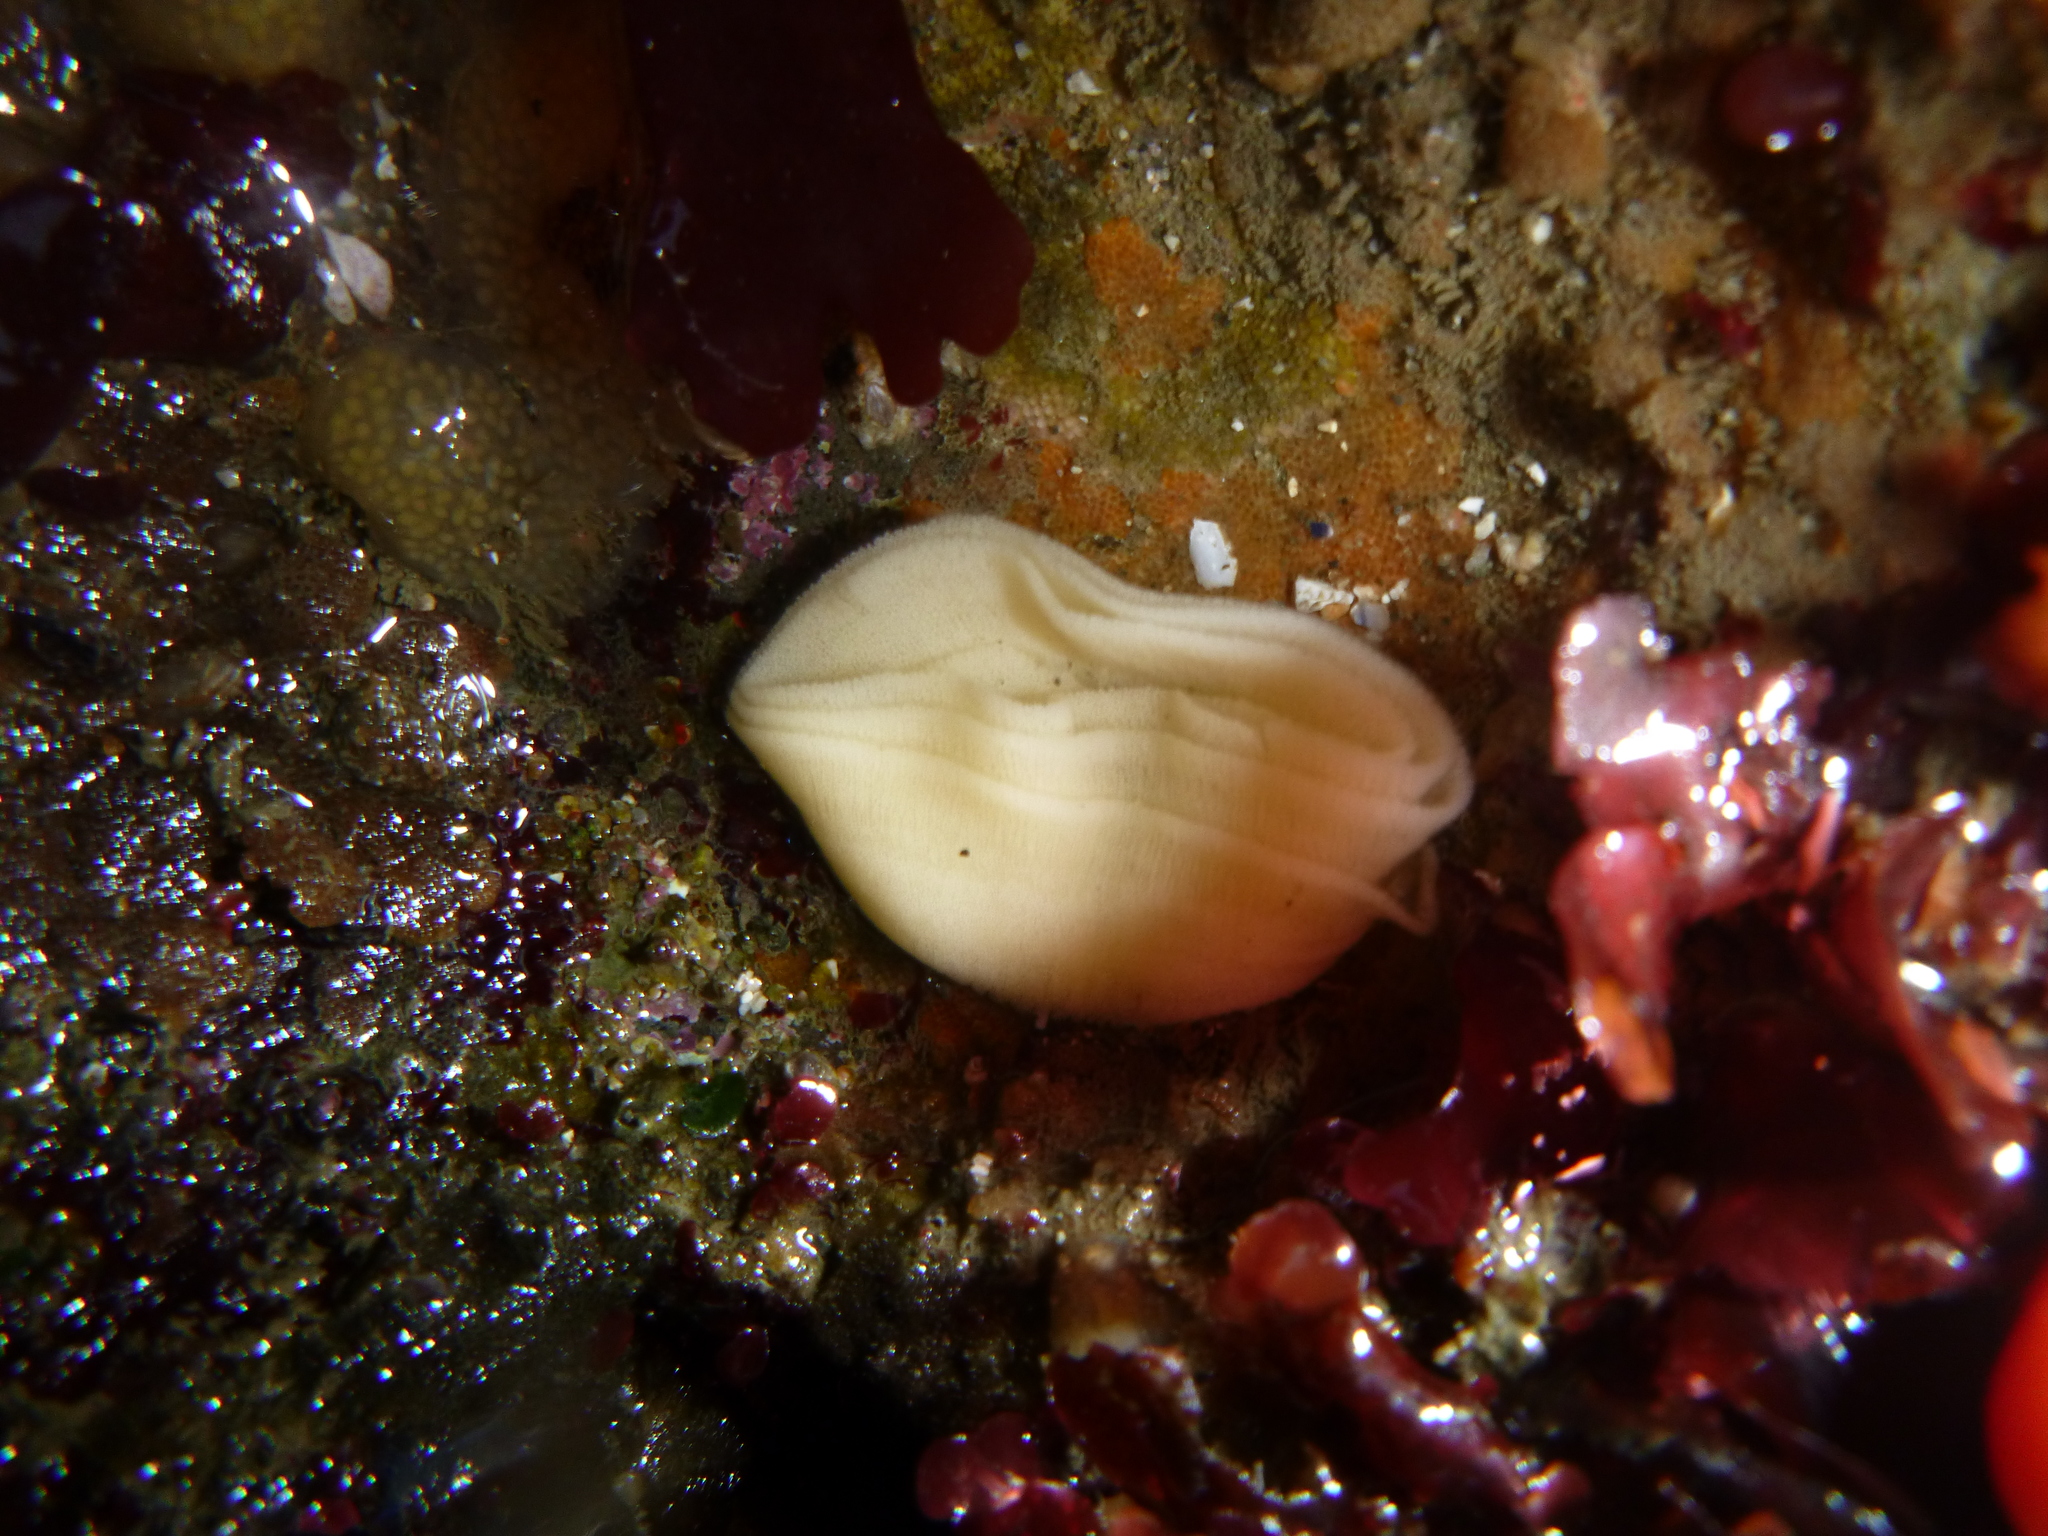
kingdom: Animalia
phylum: Mollusca
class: Gastropoda
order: Nudibranchia
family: Discodorididae
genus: Diaulula
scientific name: Diaulula sandiegensis
